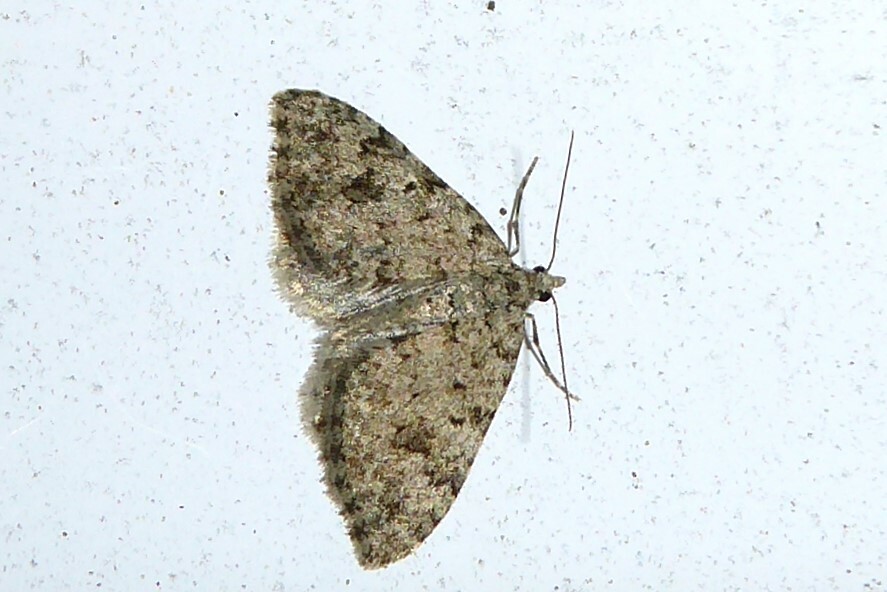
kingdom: Animalia
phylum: Arthropoda
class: Insecta
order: Lepidoptera
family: Geometridae
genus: Helastia
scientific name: Helastia cinerearia
